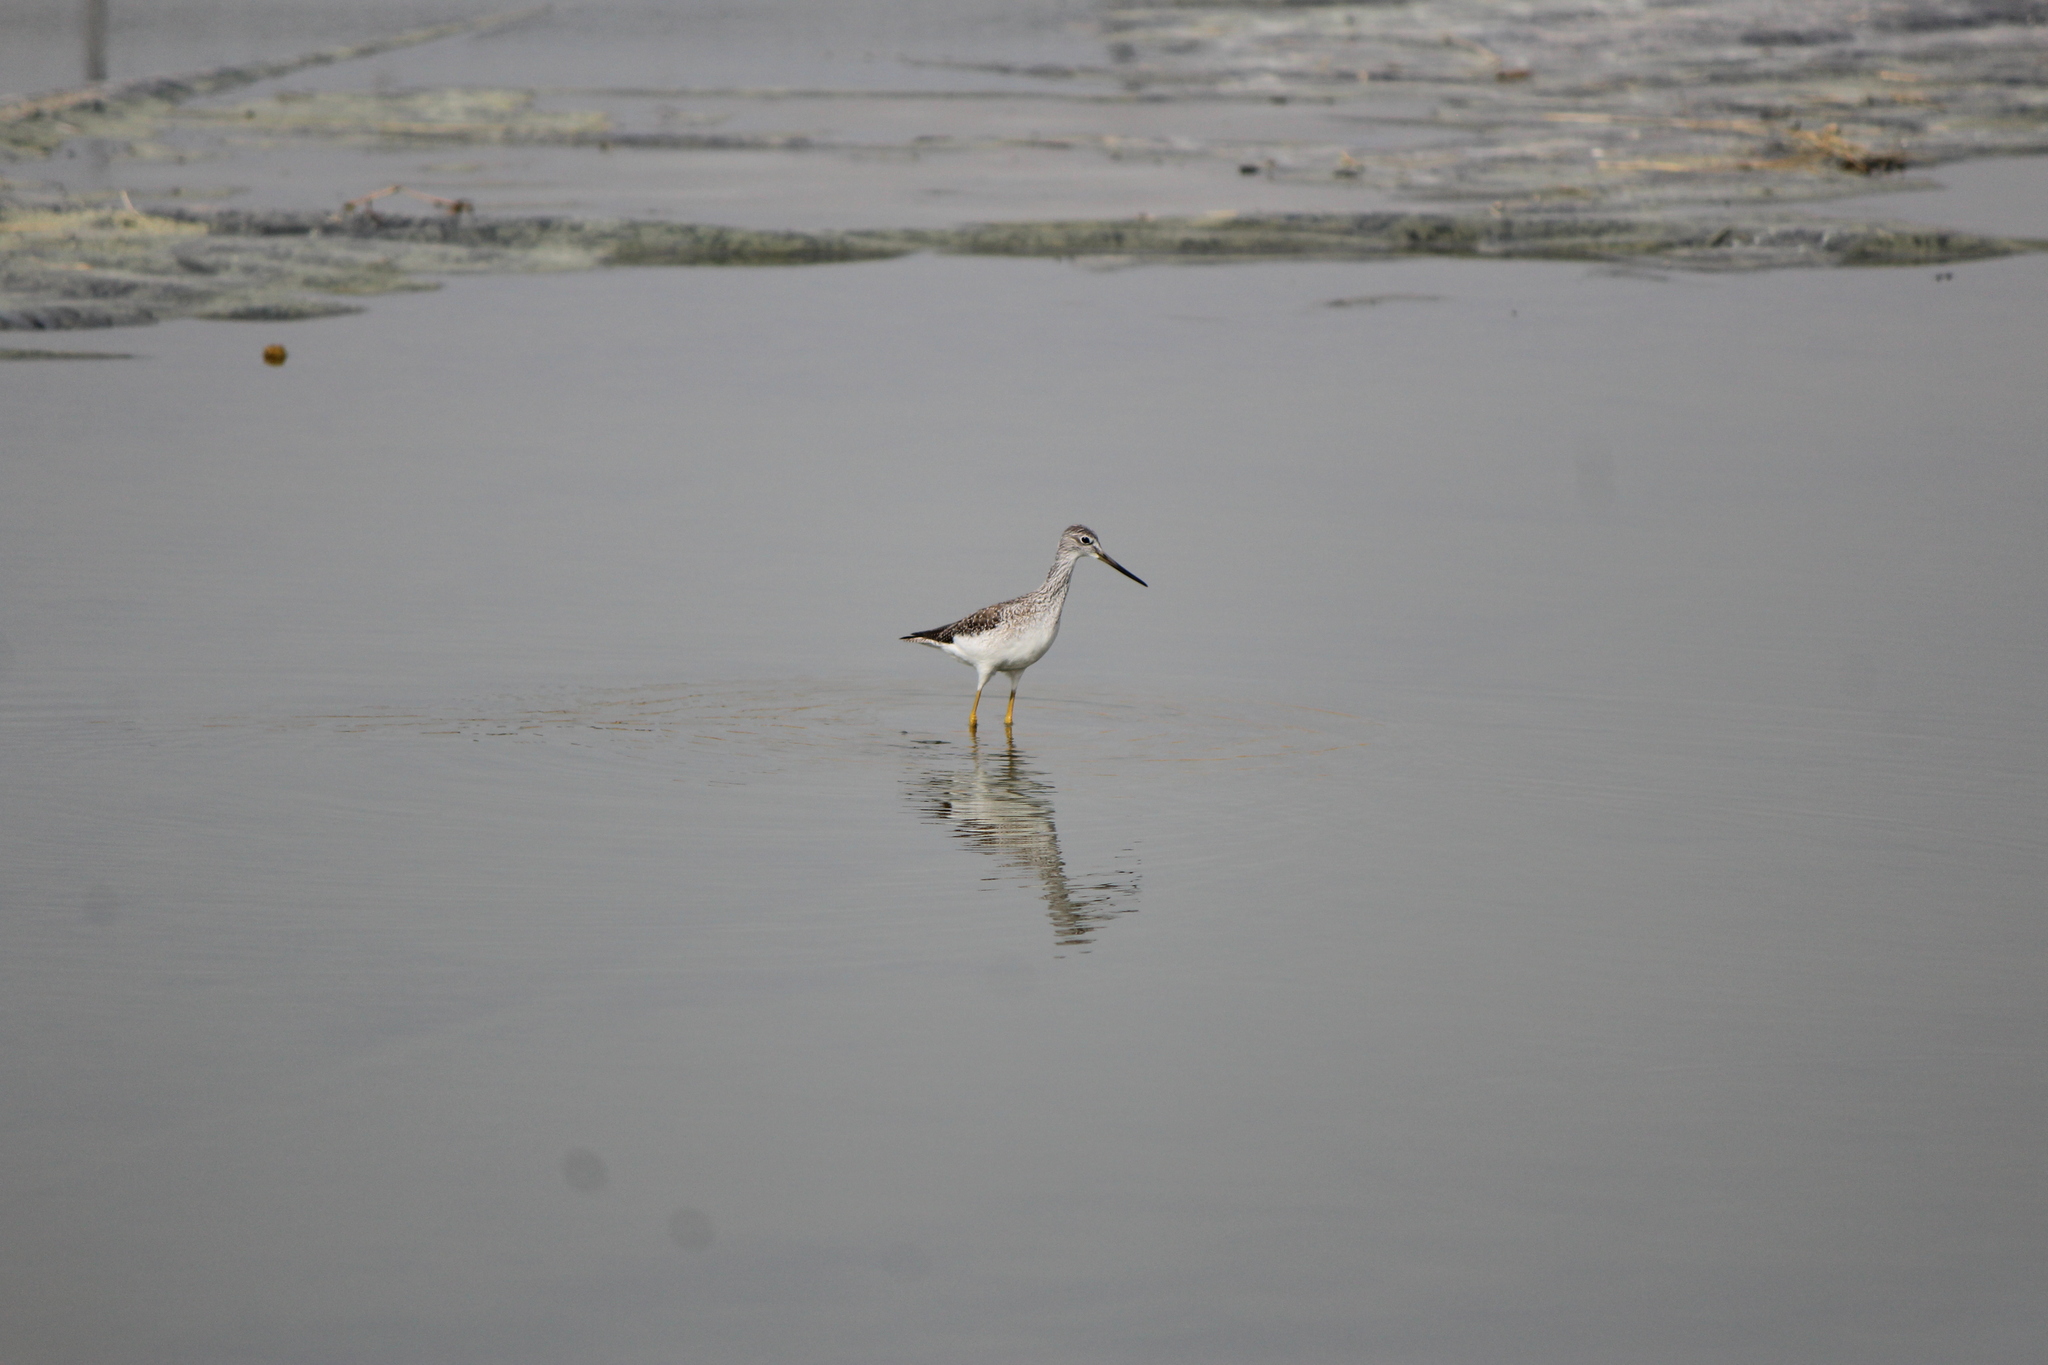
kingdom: Animalia
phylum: Chordata
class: Aves
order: Charadriiformes
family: Scolopacidae
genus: Tringa
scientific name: Tringa melanoleuca
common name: Greater yellowlegs
